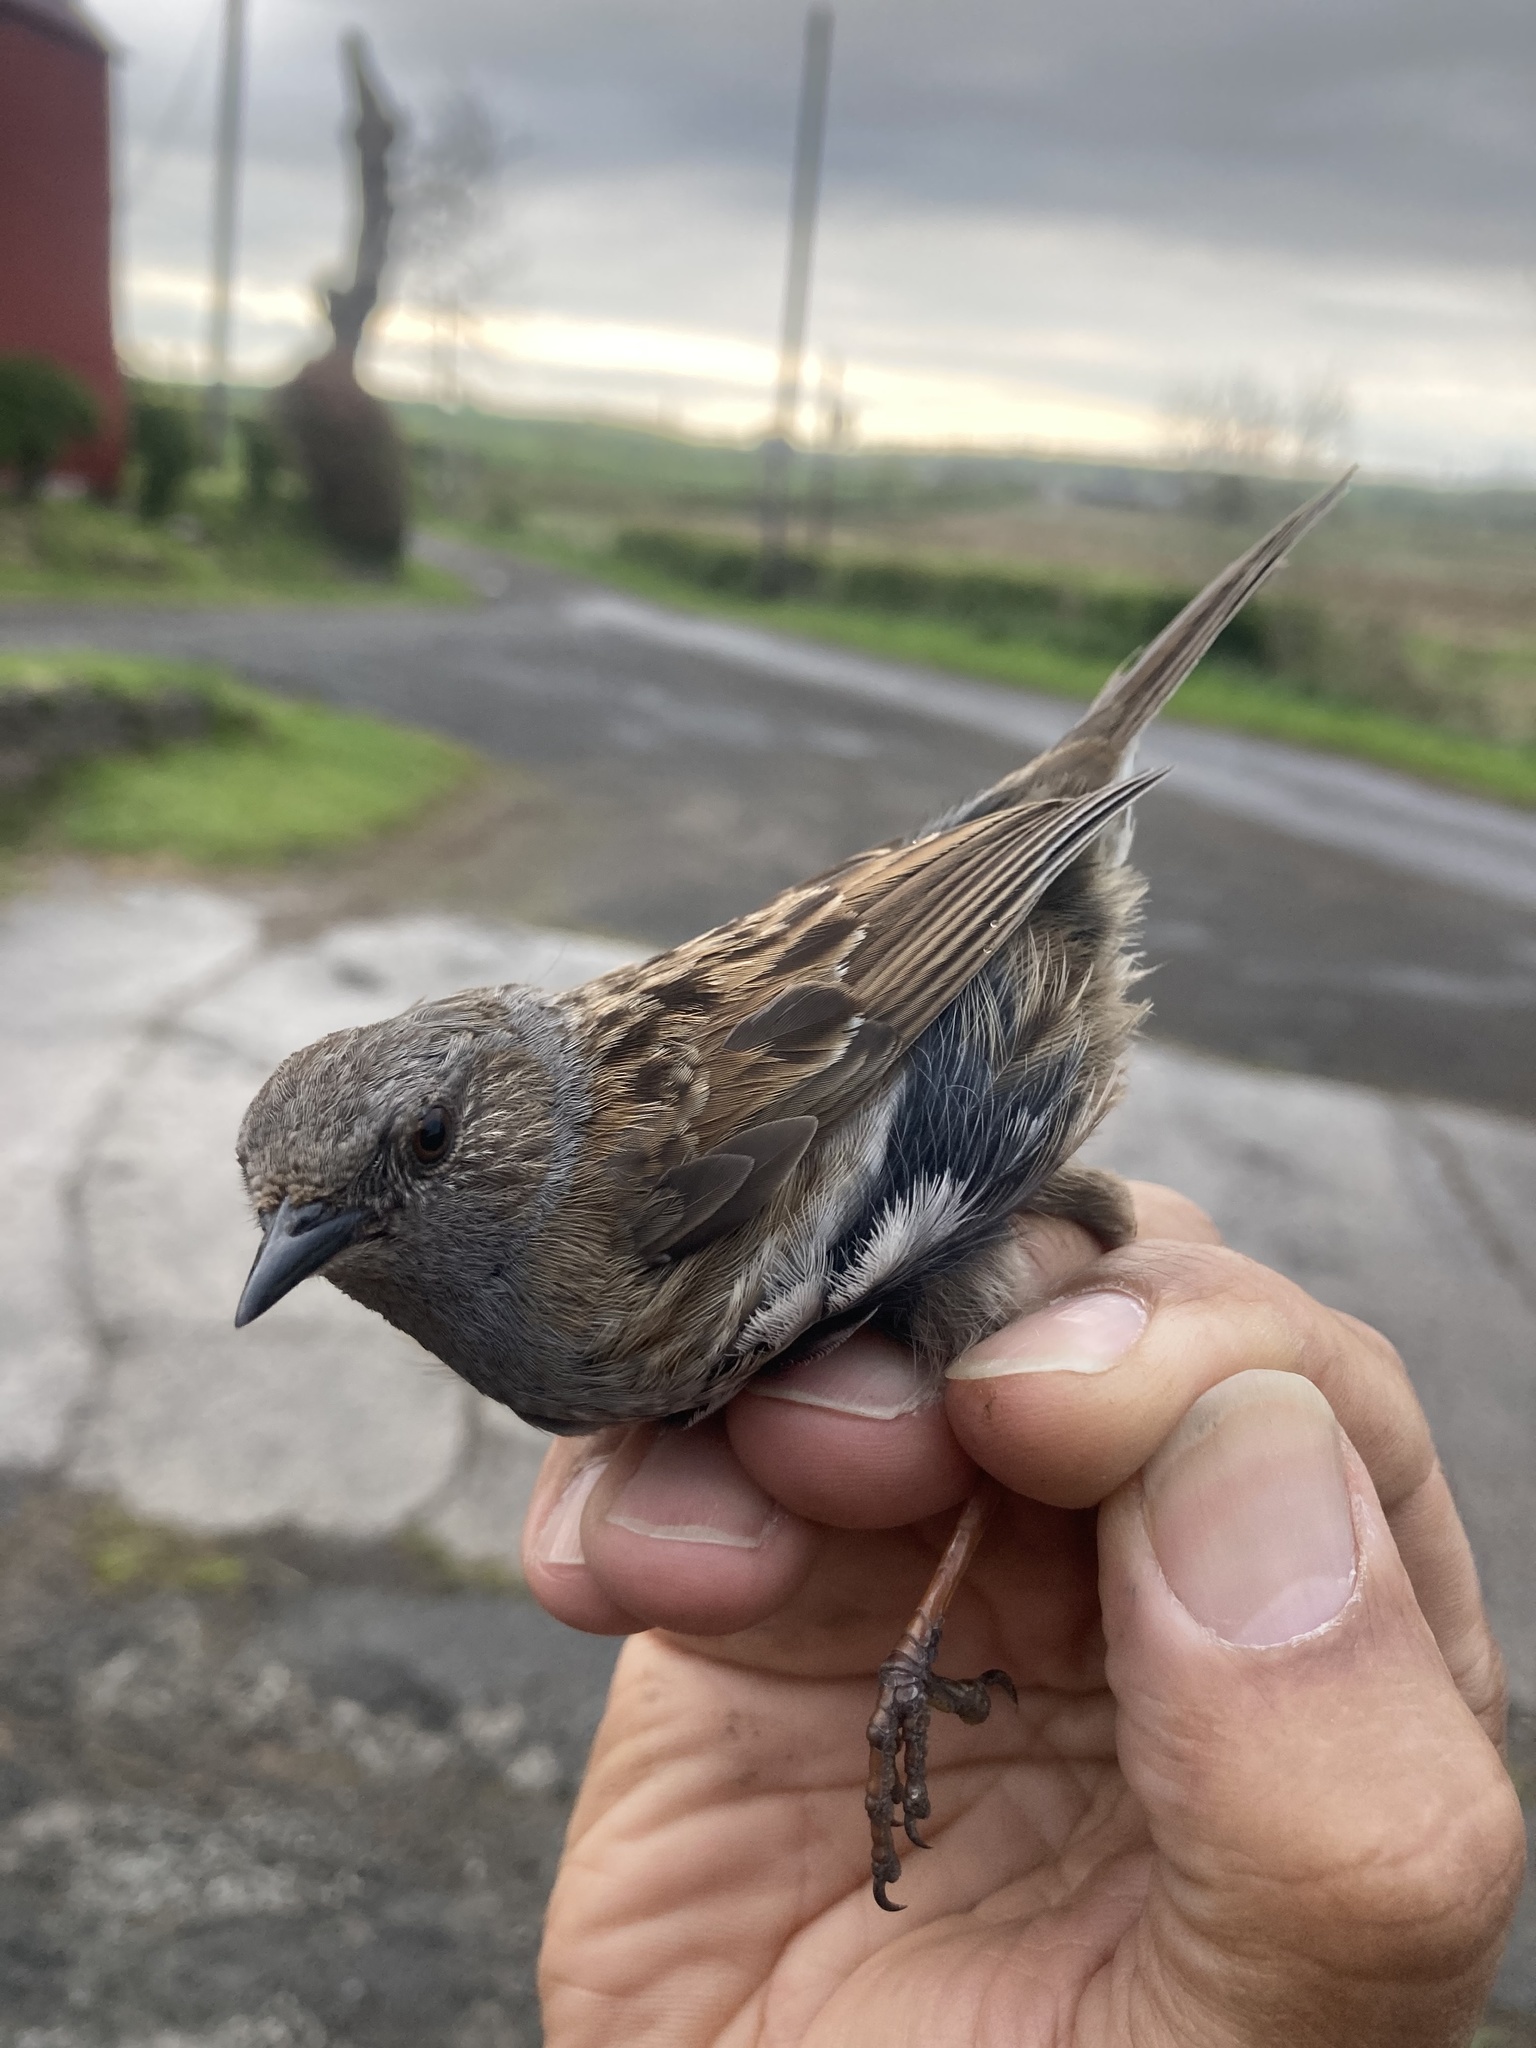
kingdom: Animalia
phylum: Chordata
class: Aves
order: Passeriformes
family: Prunellidae
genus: Prunella
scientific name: Prunella modularis
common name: Dunnock
